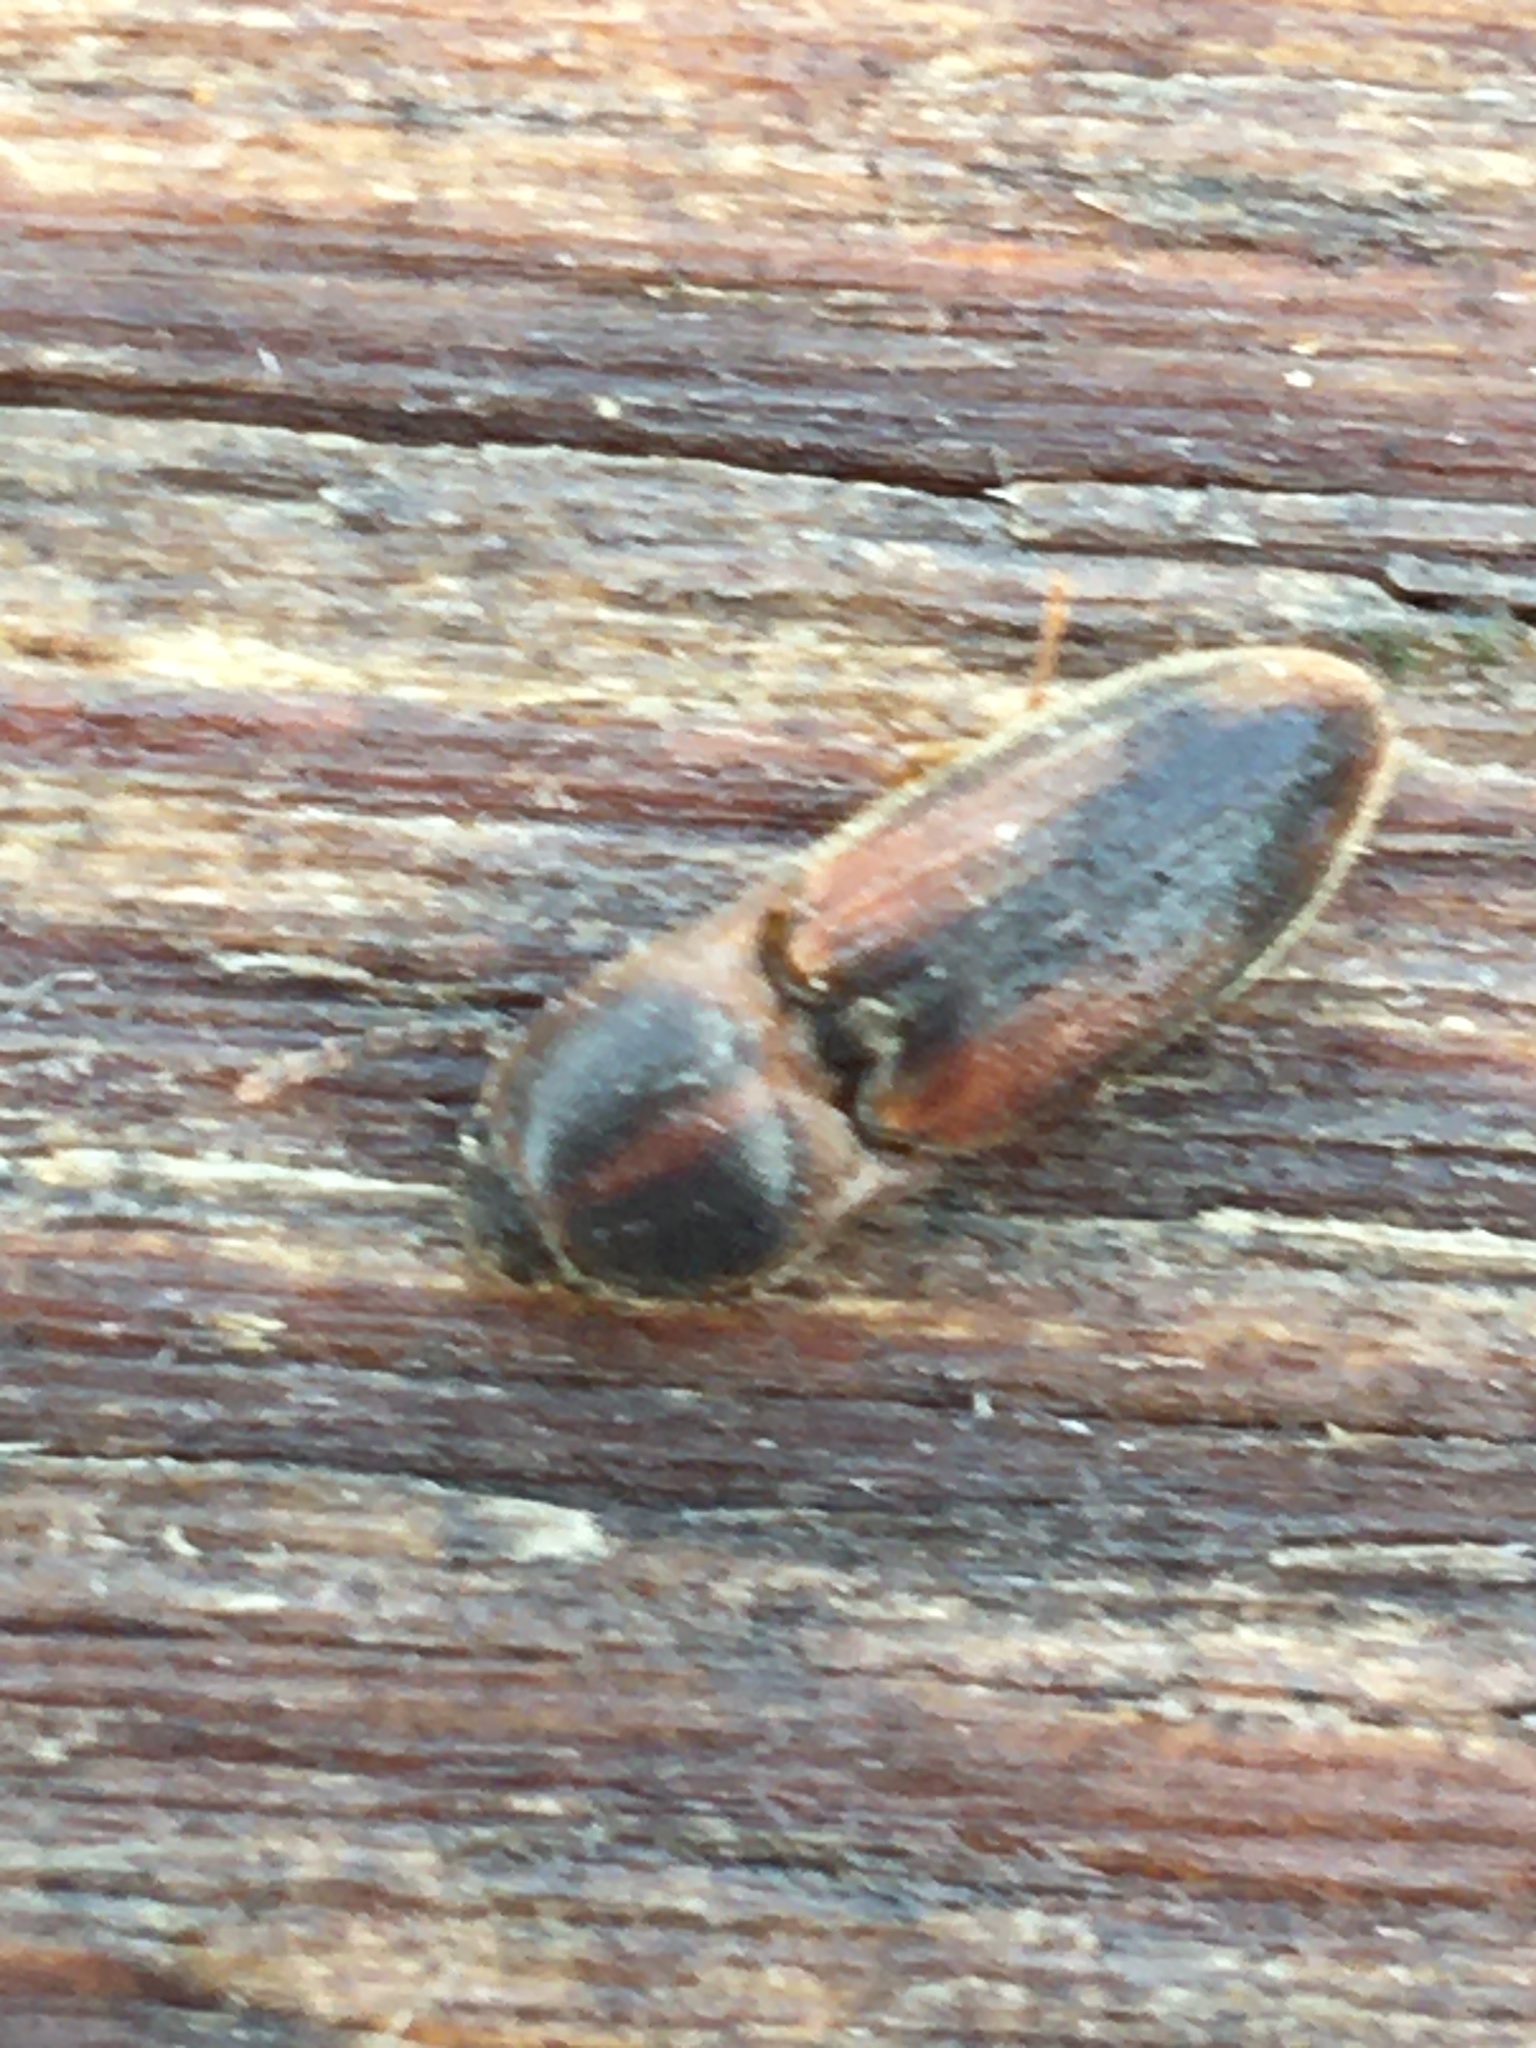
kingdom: Animalia
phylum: Arthropoda
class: Insecta
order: Coleoptera
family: Elateridae
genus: Monocrepidius
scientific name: Monocrepidius
